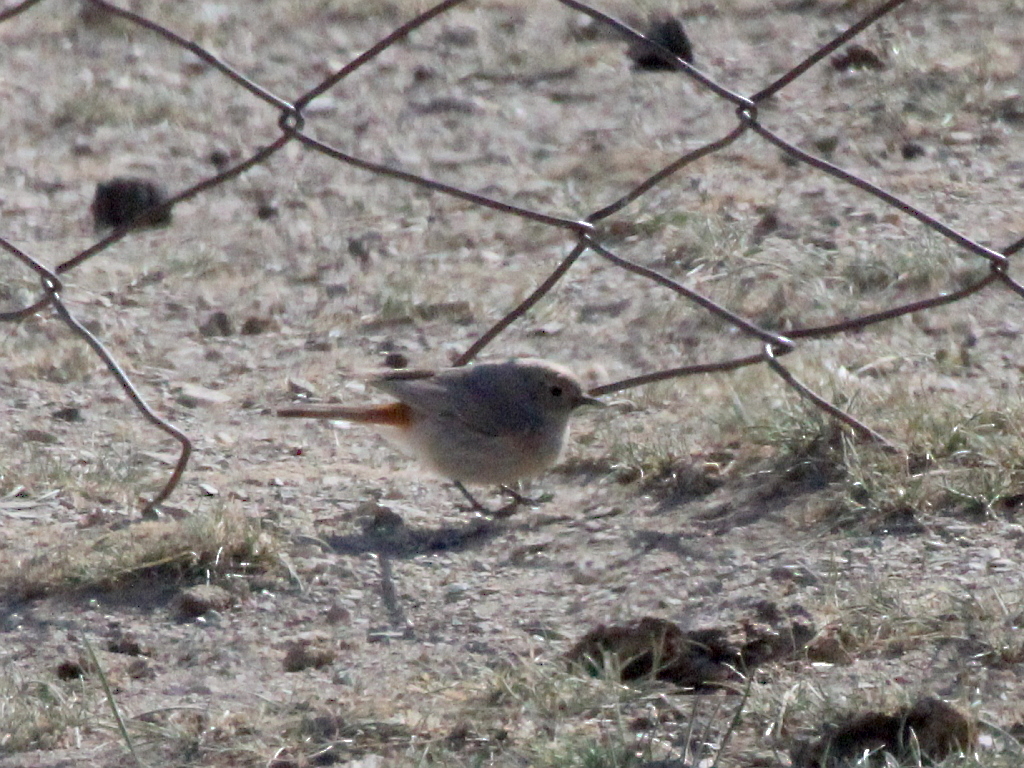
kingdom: Animalia
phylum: Chordata
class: Aves
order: Passeriformes
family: Muscicapidae
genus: Phoenicurus
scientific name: Phoenicurus erythrogastrus
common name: Güldenstädt's redstart
